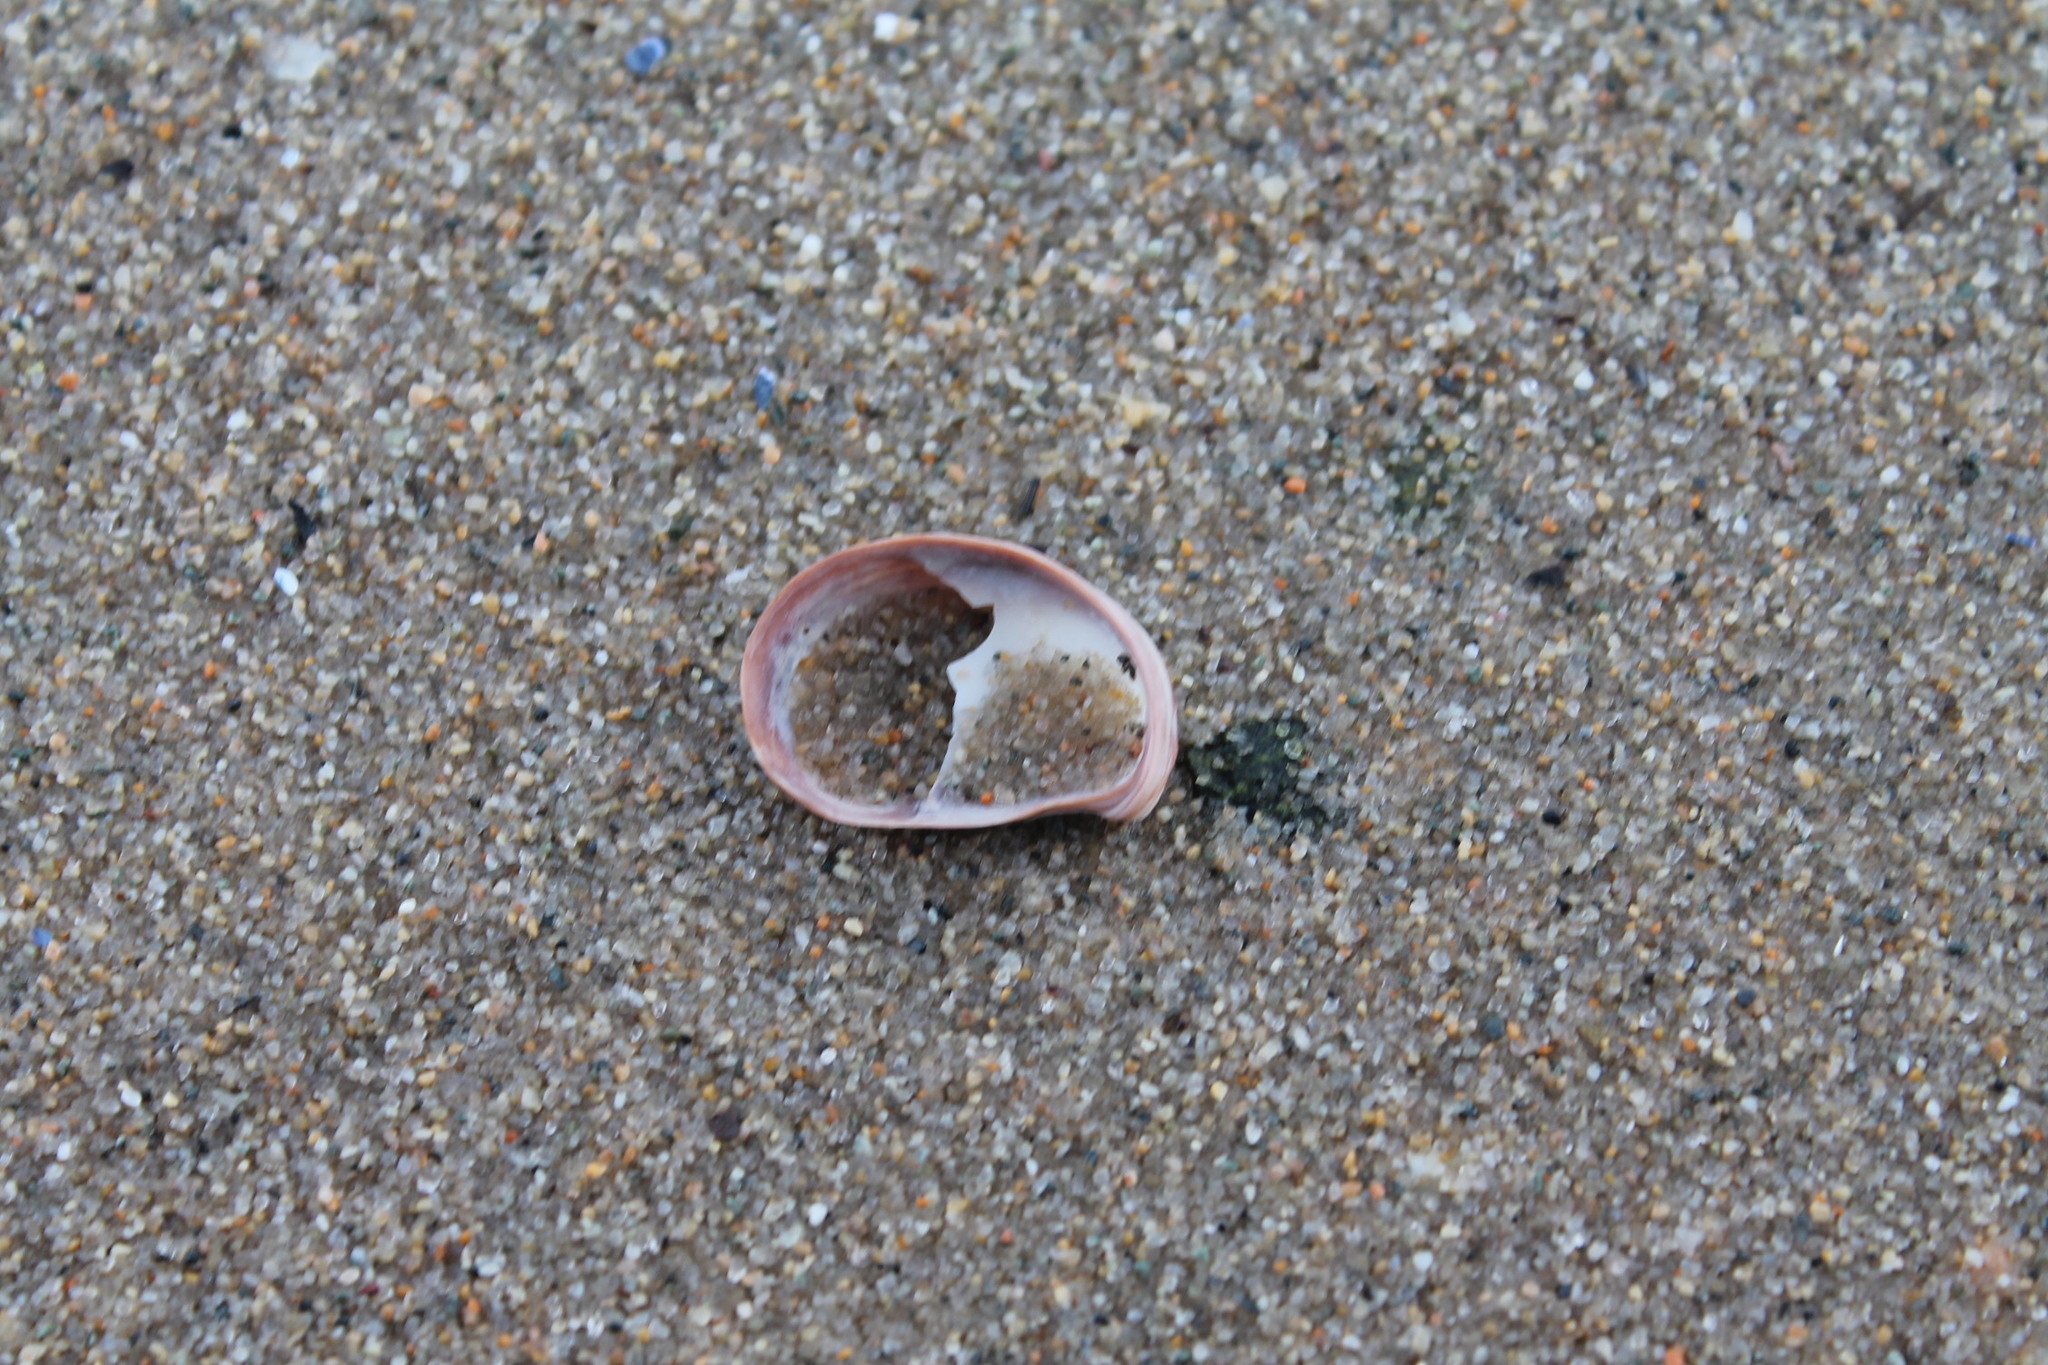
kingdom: Animalia
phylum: Mollusca
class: Gastropoda
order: Littorinimorpha
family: Calyptraeidae
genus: Crepidula
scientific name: Crepidula fornicata
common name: Slipper limpet
